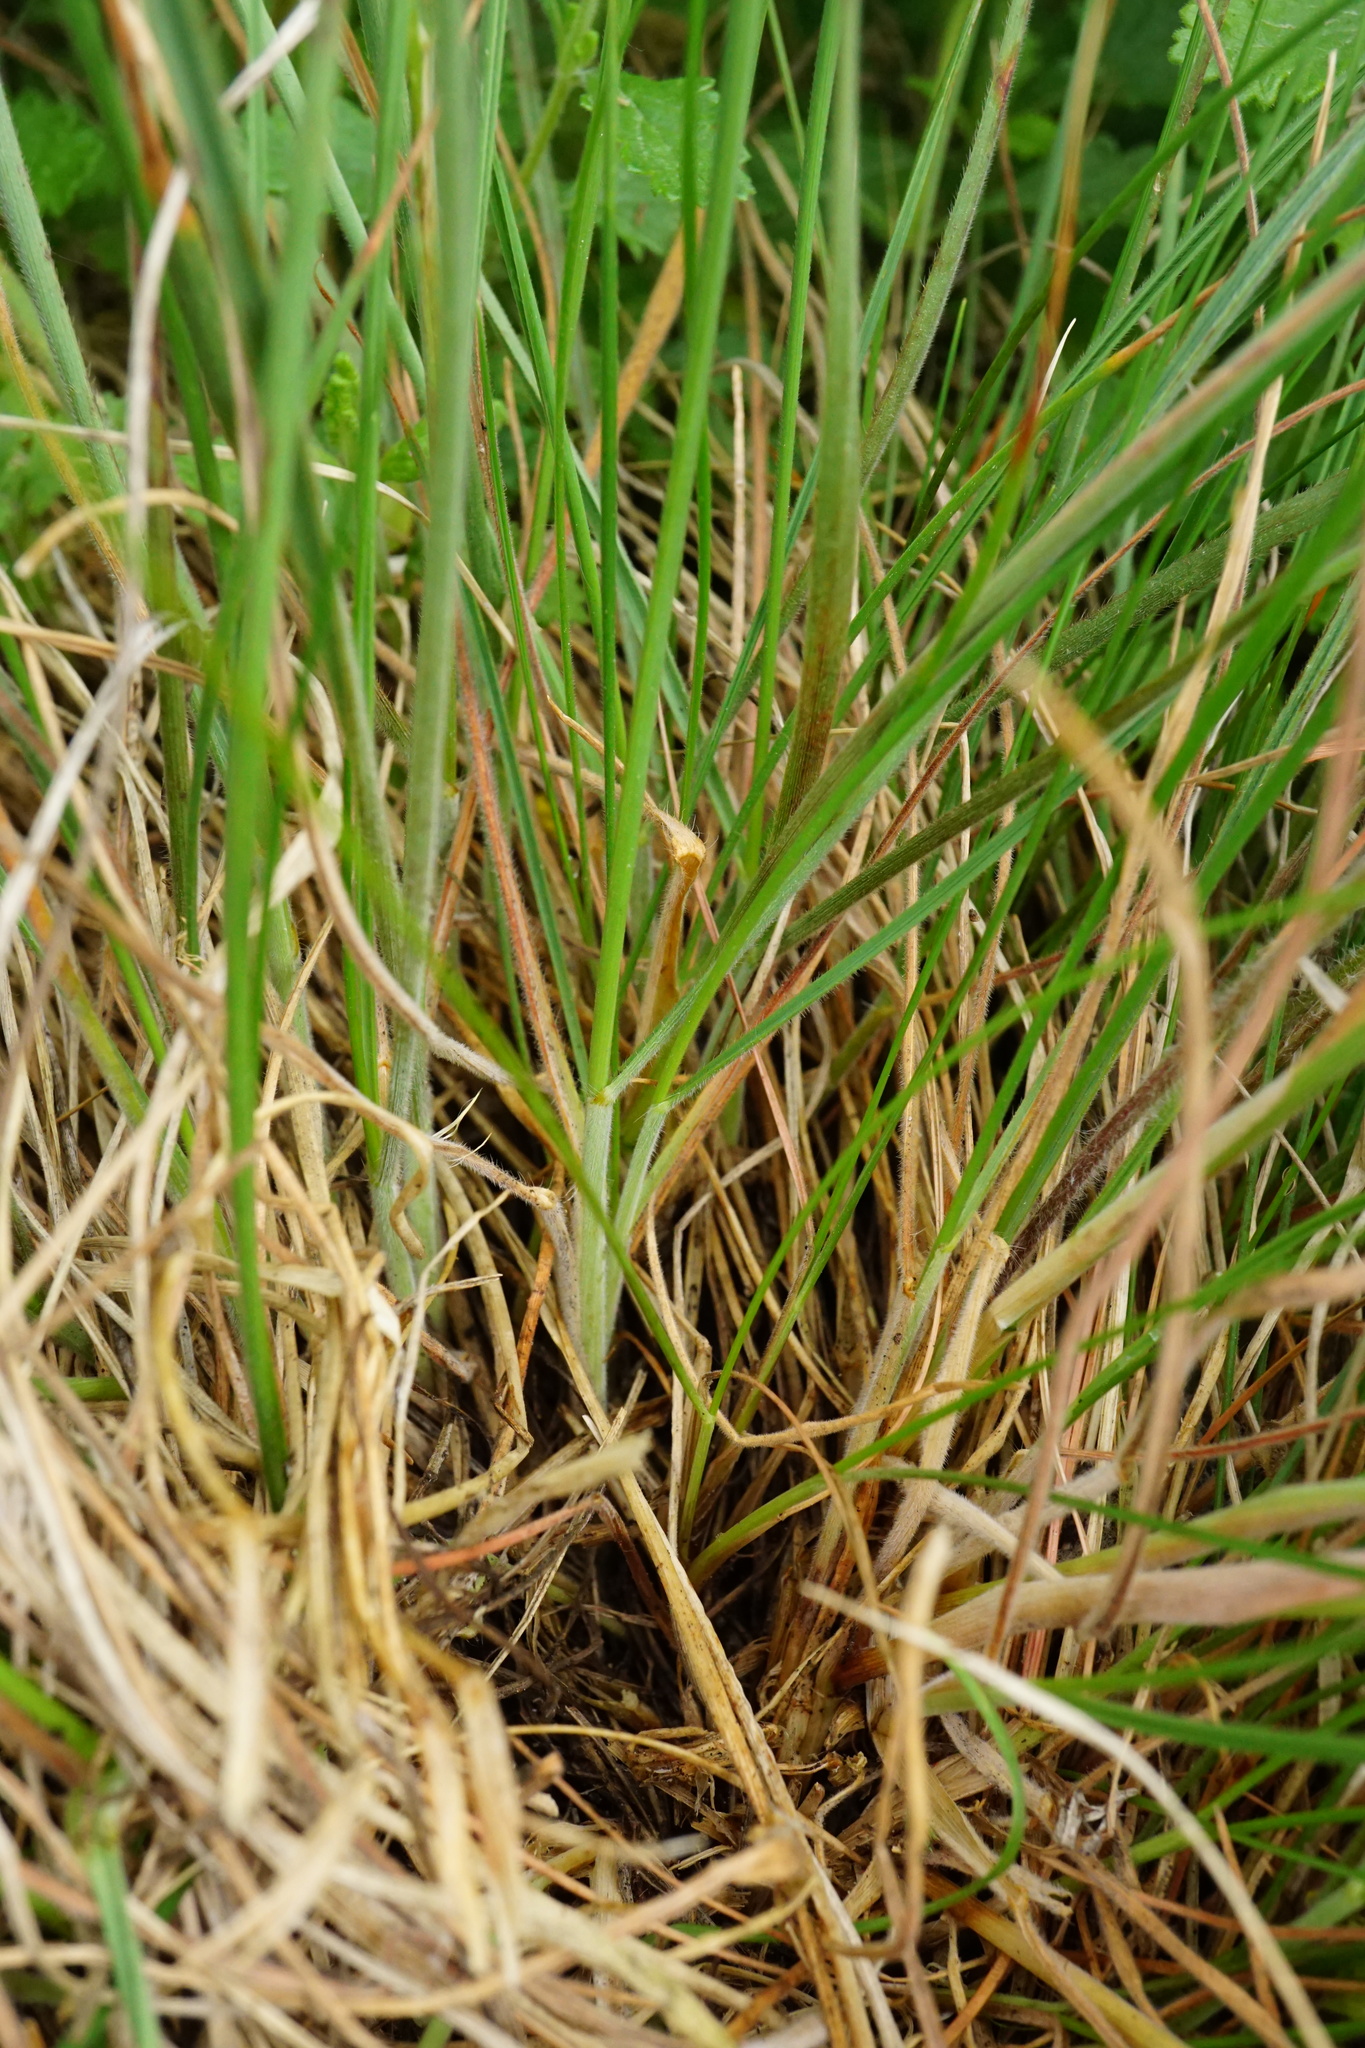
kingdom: Plantae
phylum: Tracheophyta
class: Liliopsida
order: Poales
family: Poaceae
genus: Koeleria
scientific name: Koeleria macrantha
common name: Crested hair-grass
